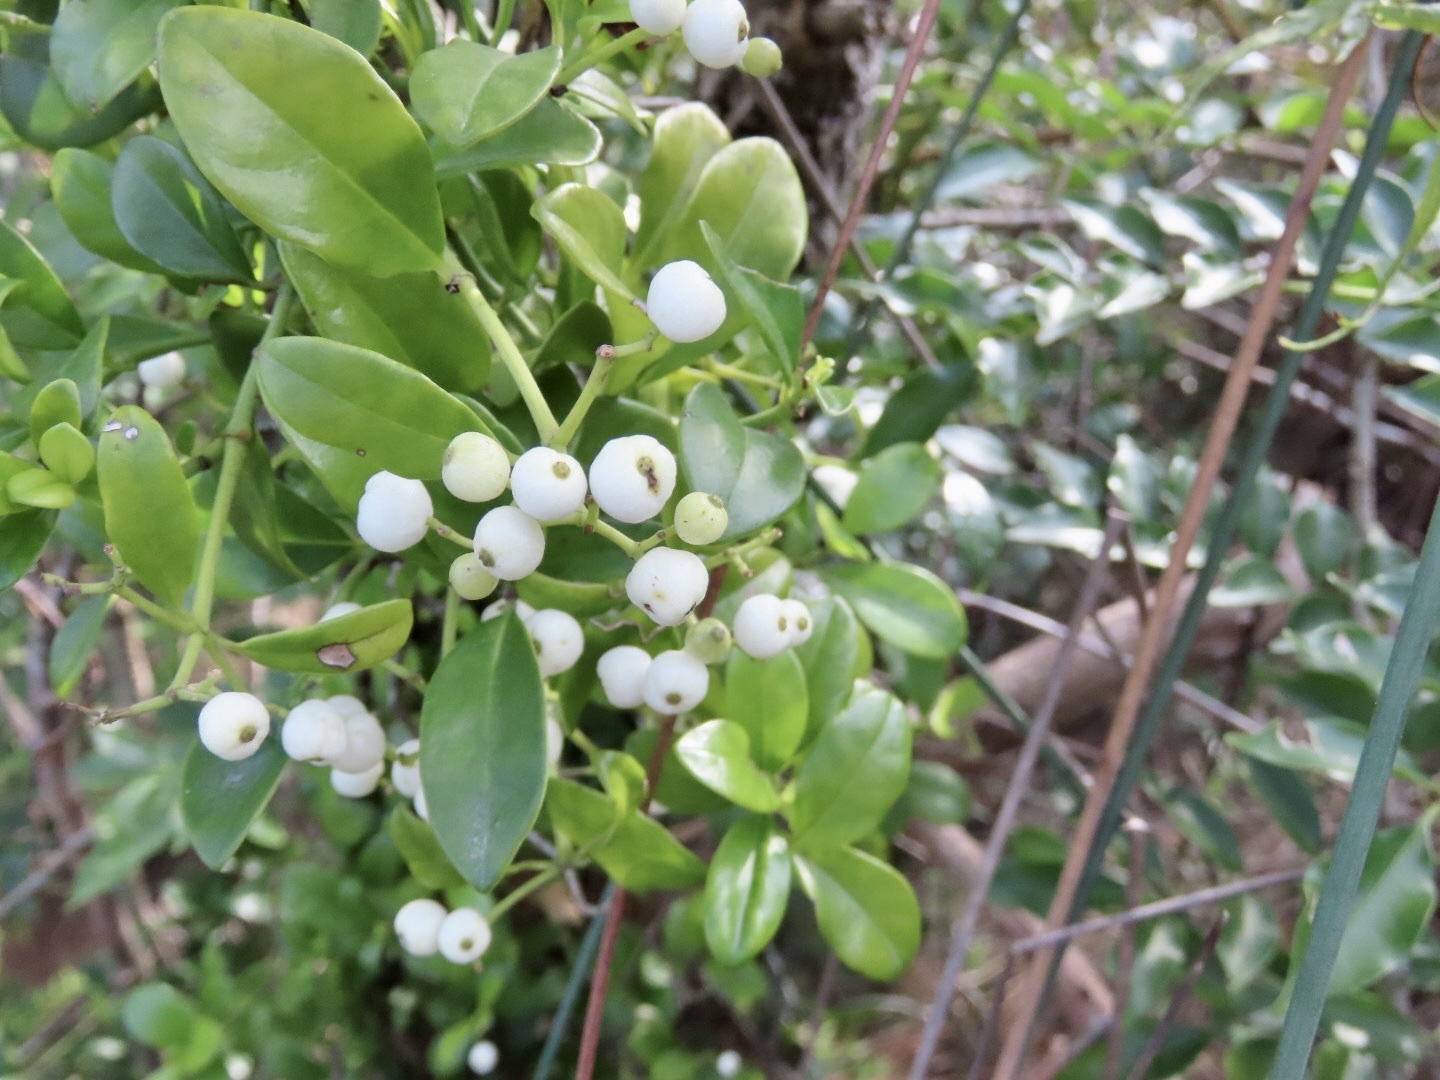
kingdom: Plantae
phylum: Tracheophyta
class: Magnoliopsida
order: Gentianales
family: Rubiaceae
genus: Psychotria
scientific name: Psychotria serpens
